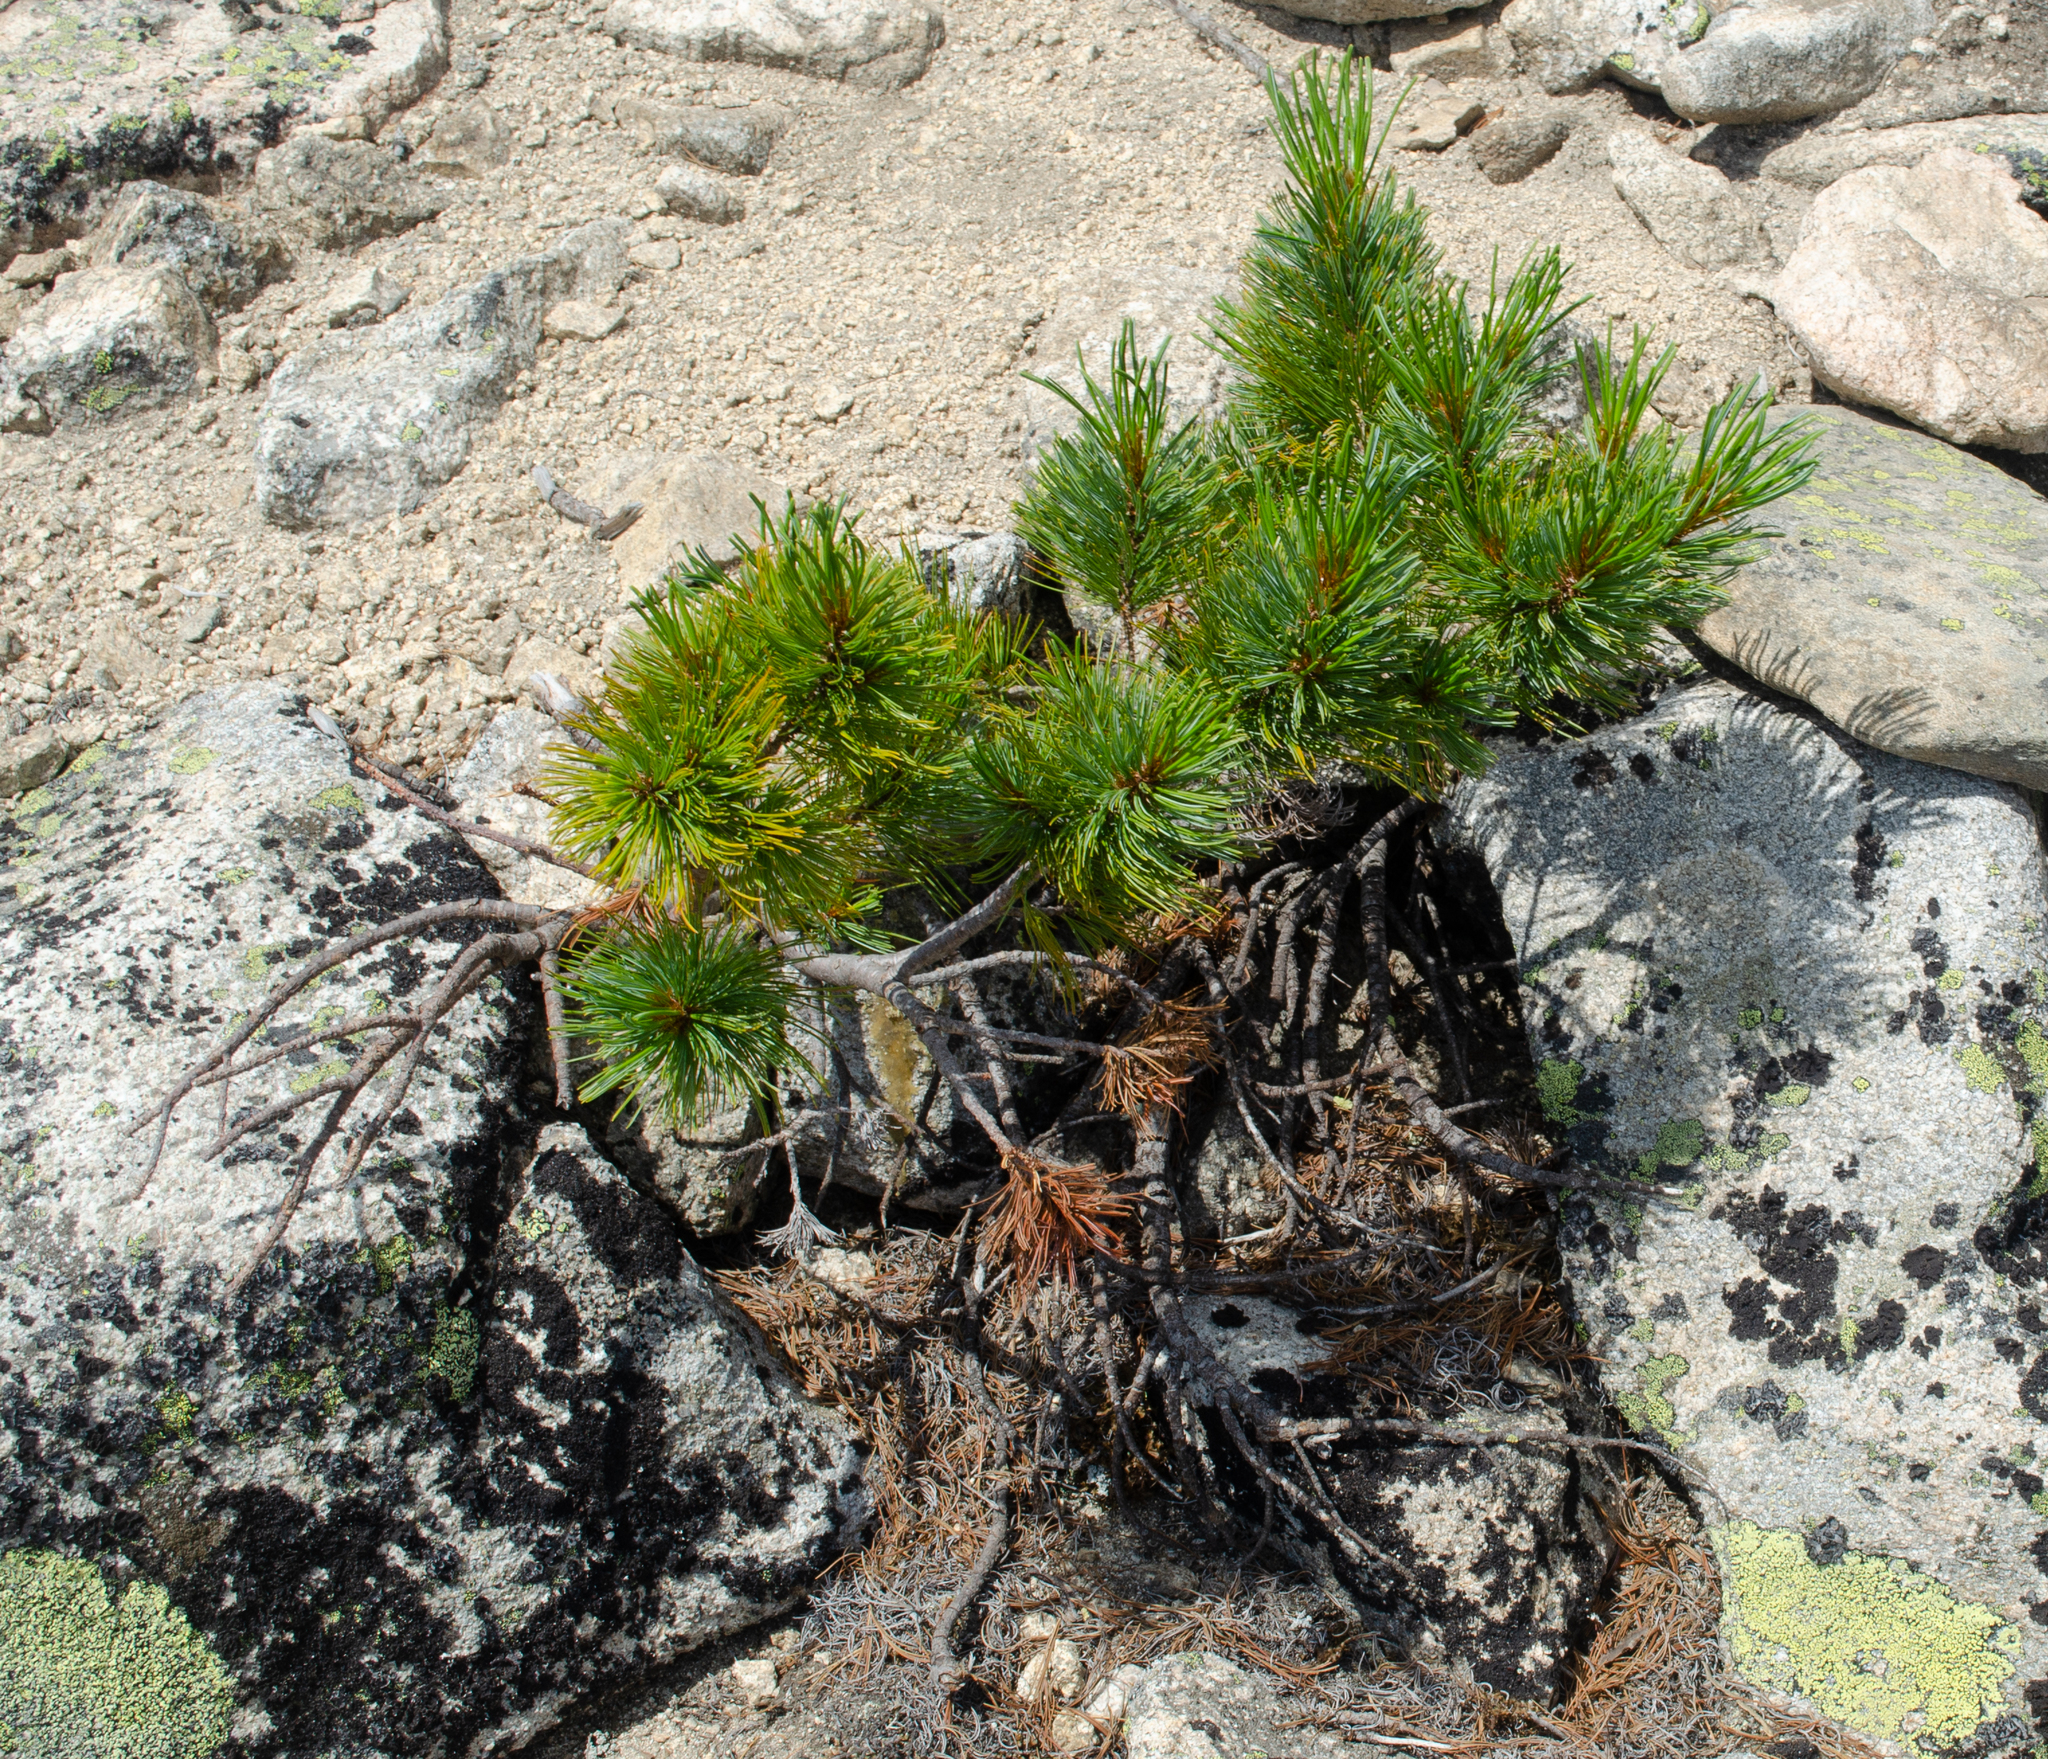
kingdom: Plantae
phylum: Tracheophyta
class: Pinopsida
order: Pinales
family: Pinaceae
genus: Pinus
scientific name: Pinus pumila
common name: Dwarf siberian pine
